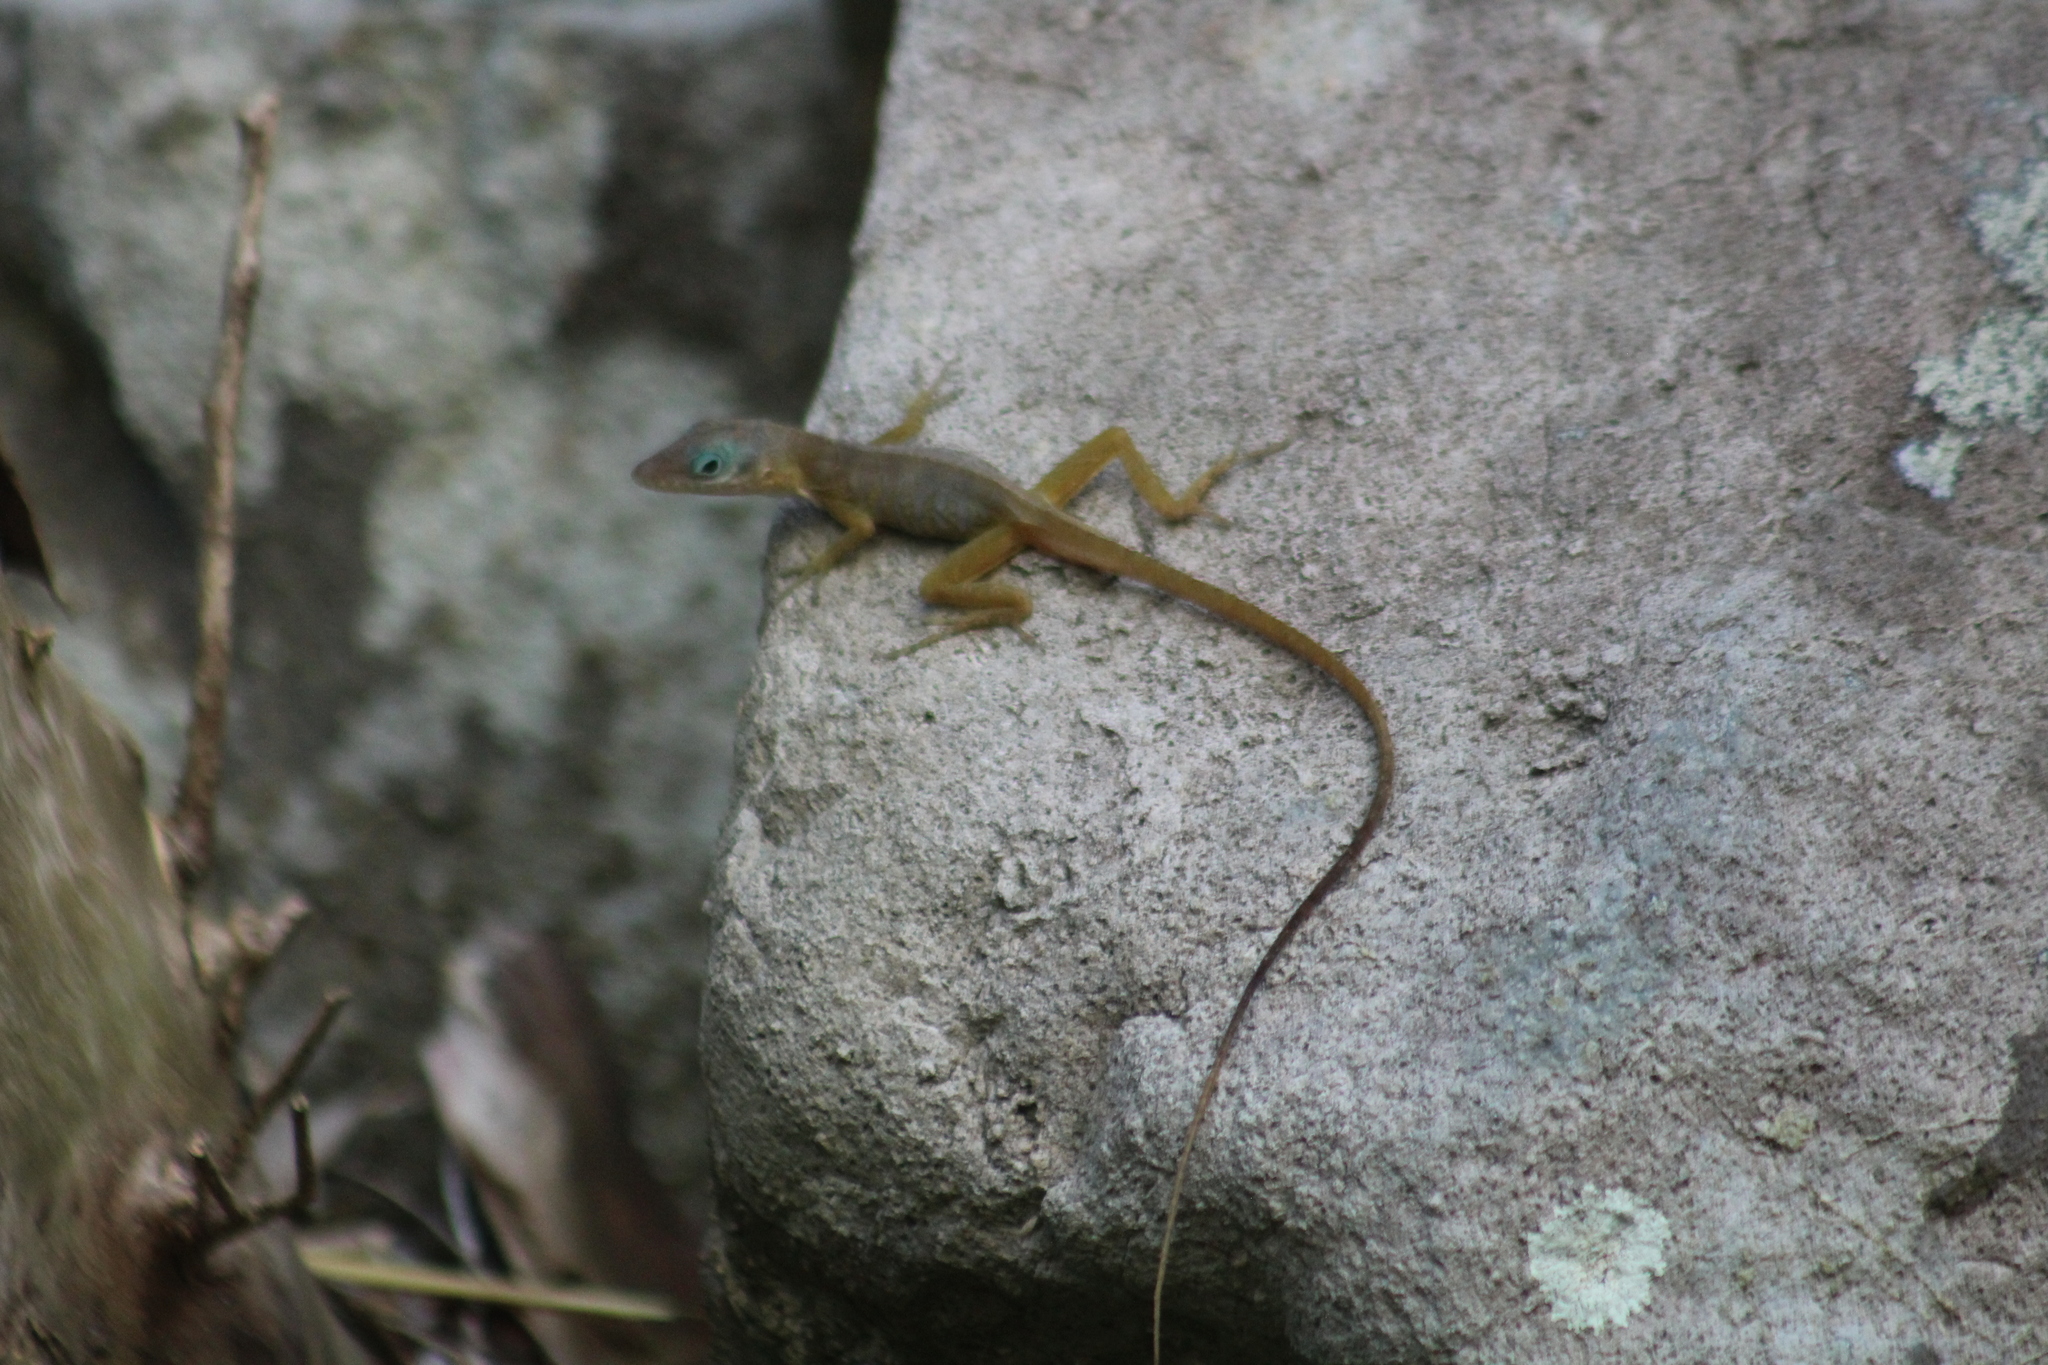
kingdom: Animalia
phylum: Chordata
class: Squamata
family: Dactyloidae
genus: Anolis
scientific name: Anolis pogus
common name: Anguilla bank bush anole
